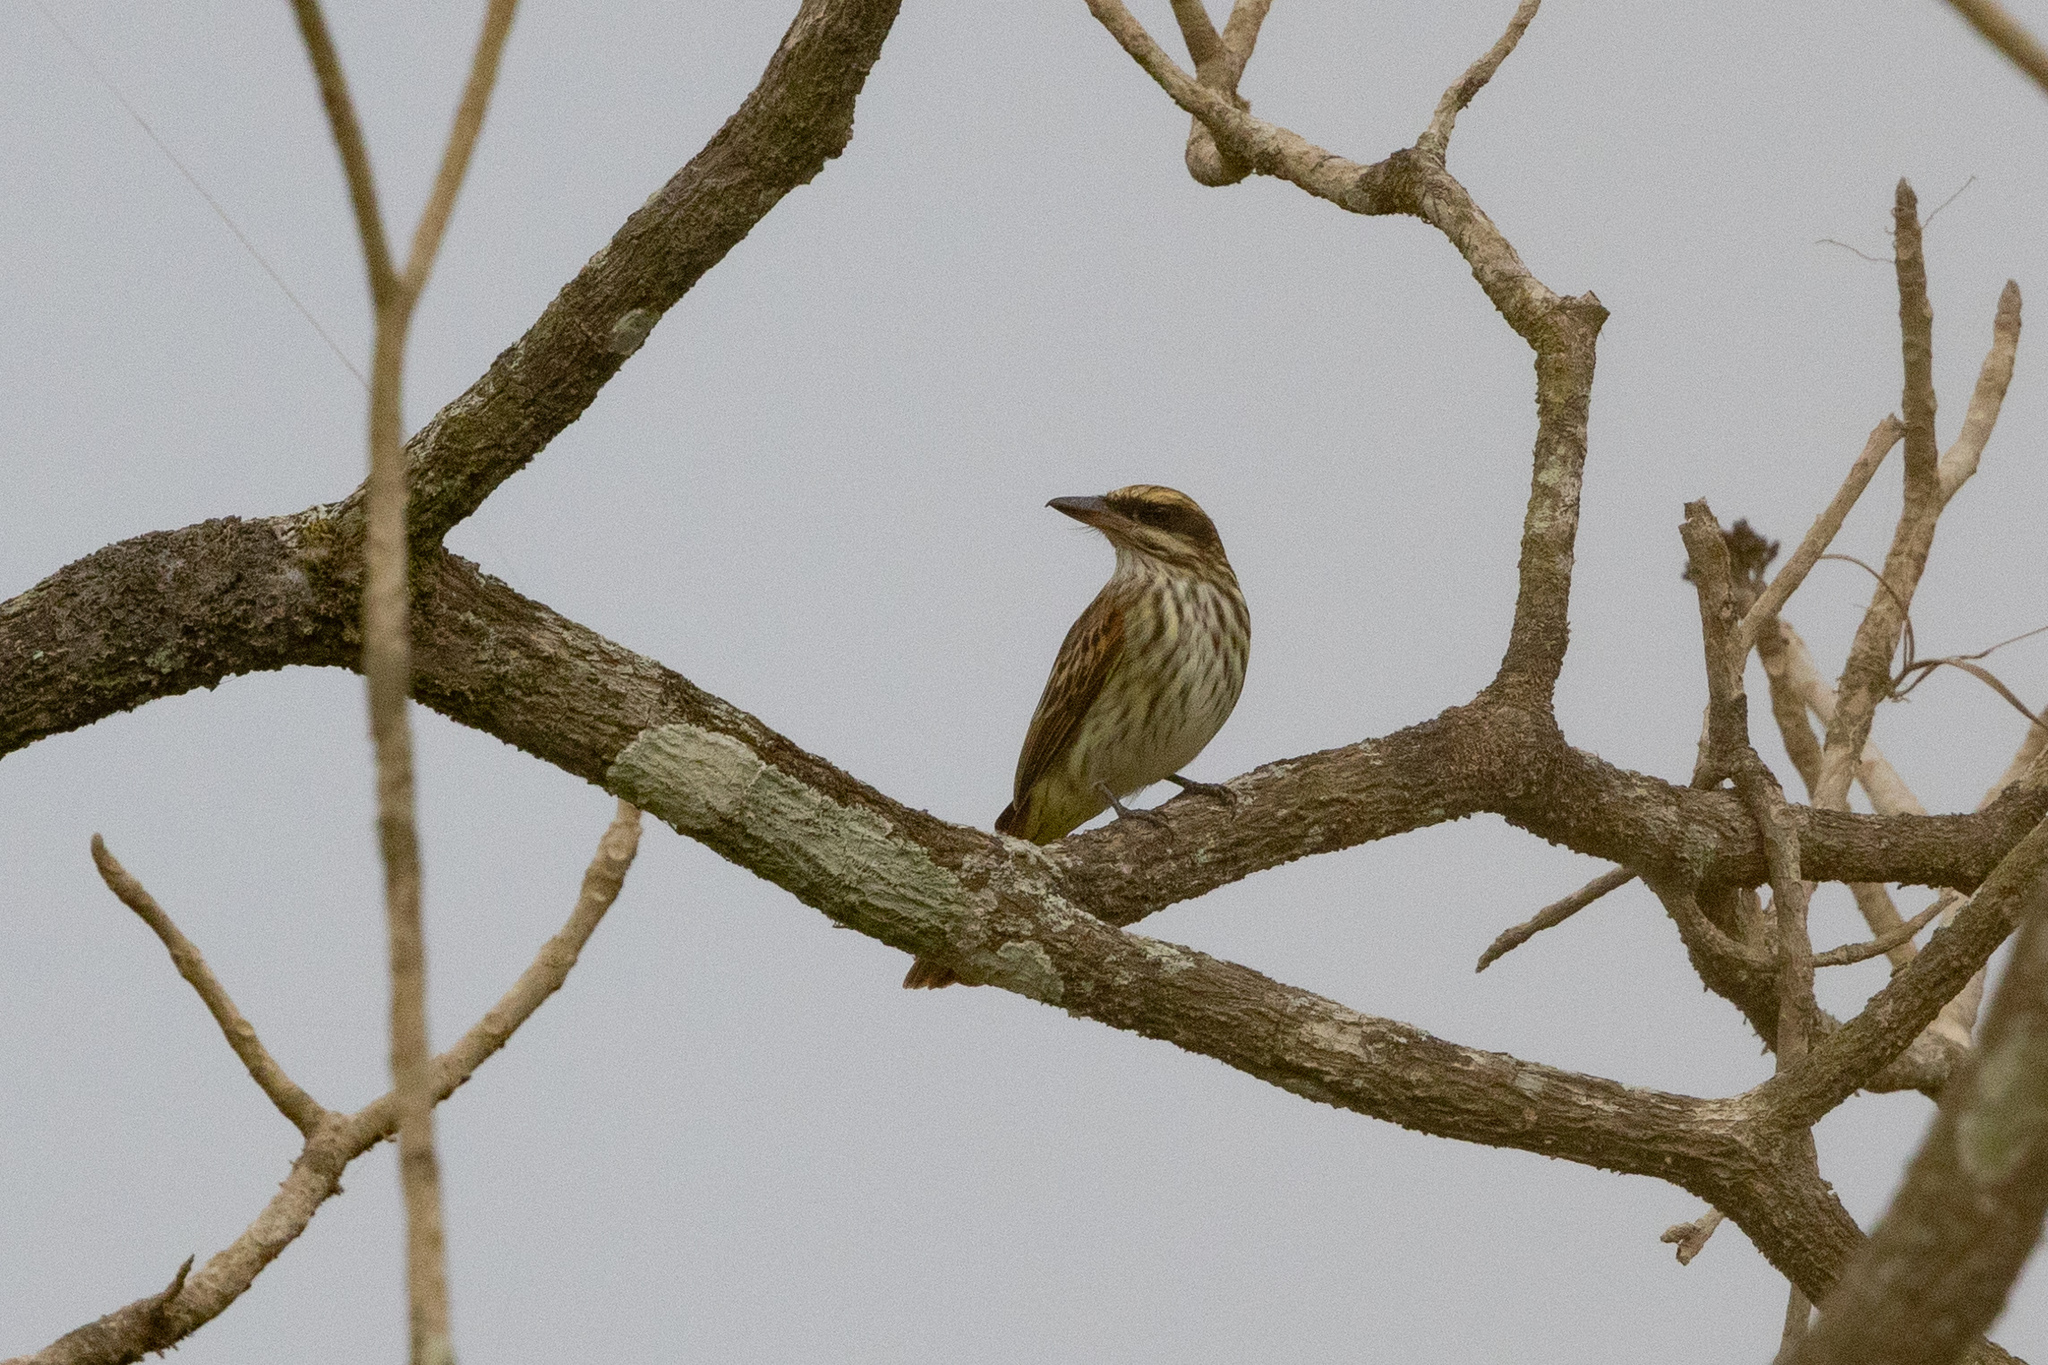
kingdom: Animalia
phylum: Chordata
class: Aves
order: Passeriformes
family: Tyrannidae
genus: Myiodynastes
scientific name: Myiodynastes maculatus
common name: Streaked flycatcher
